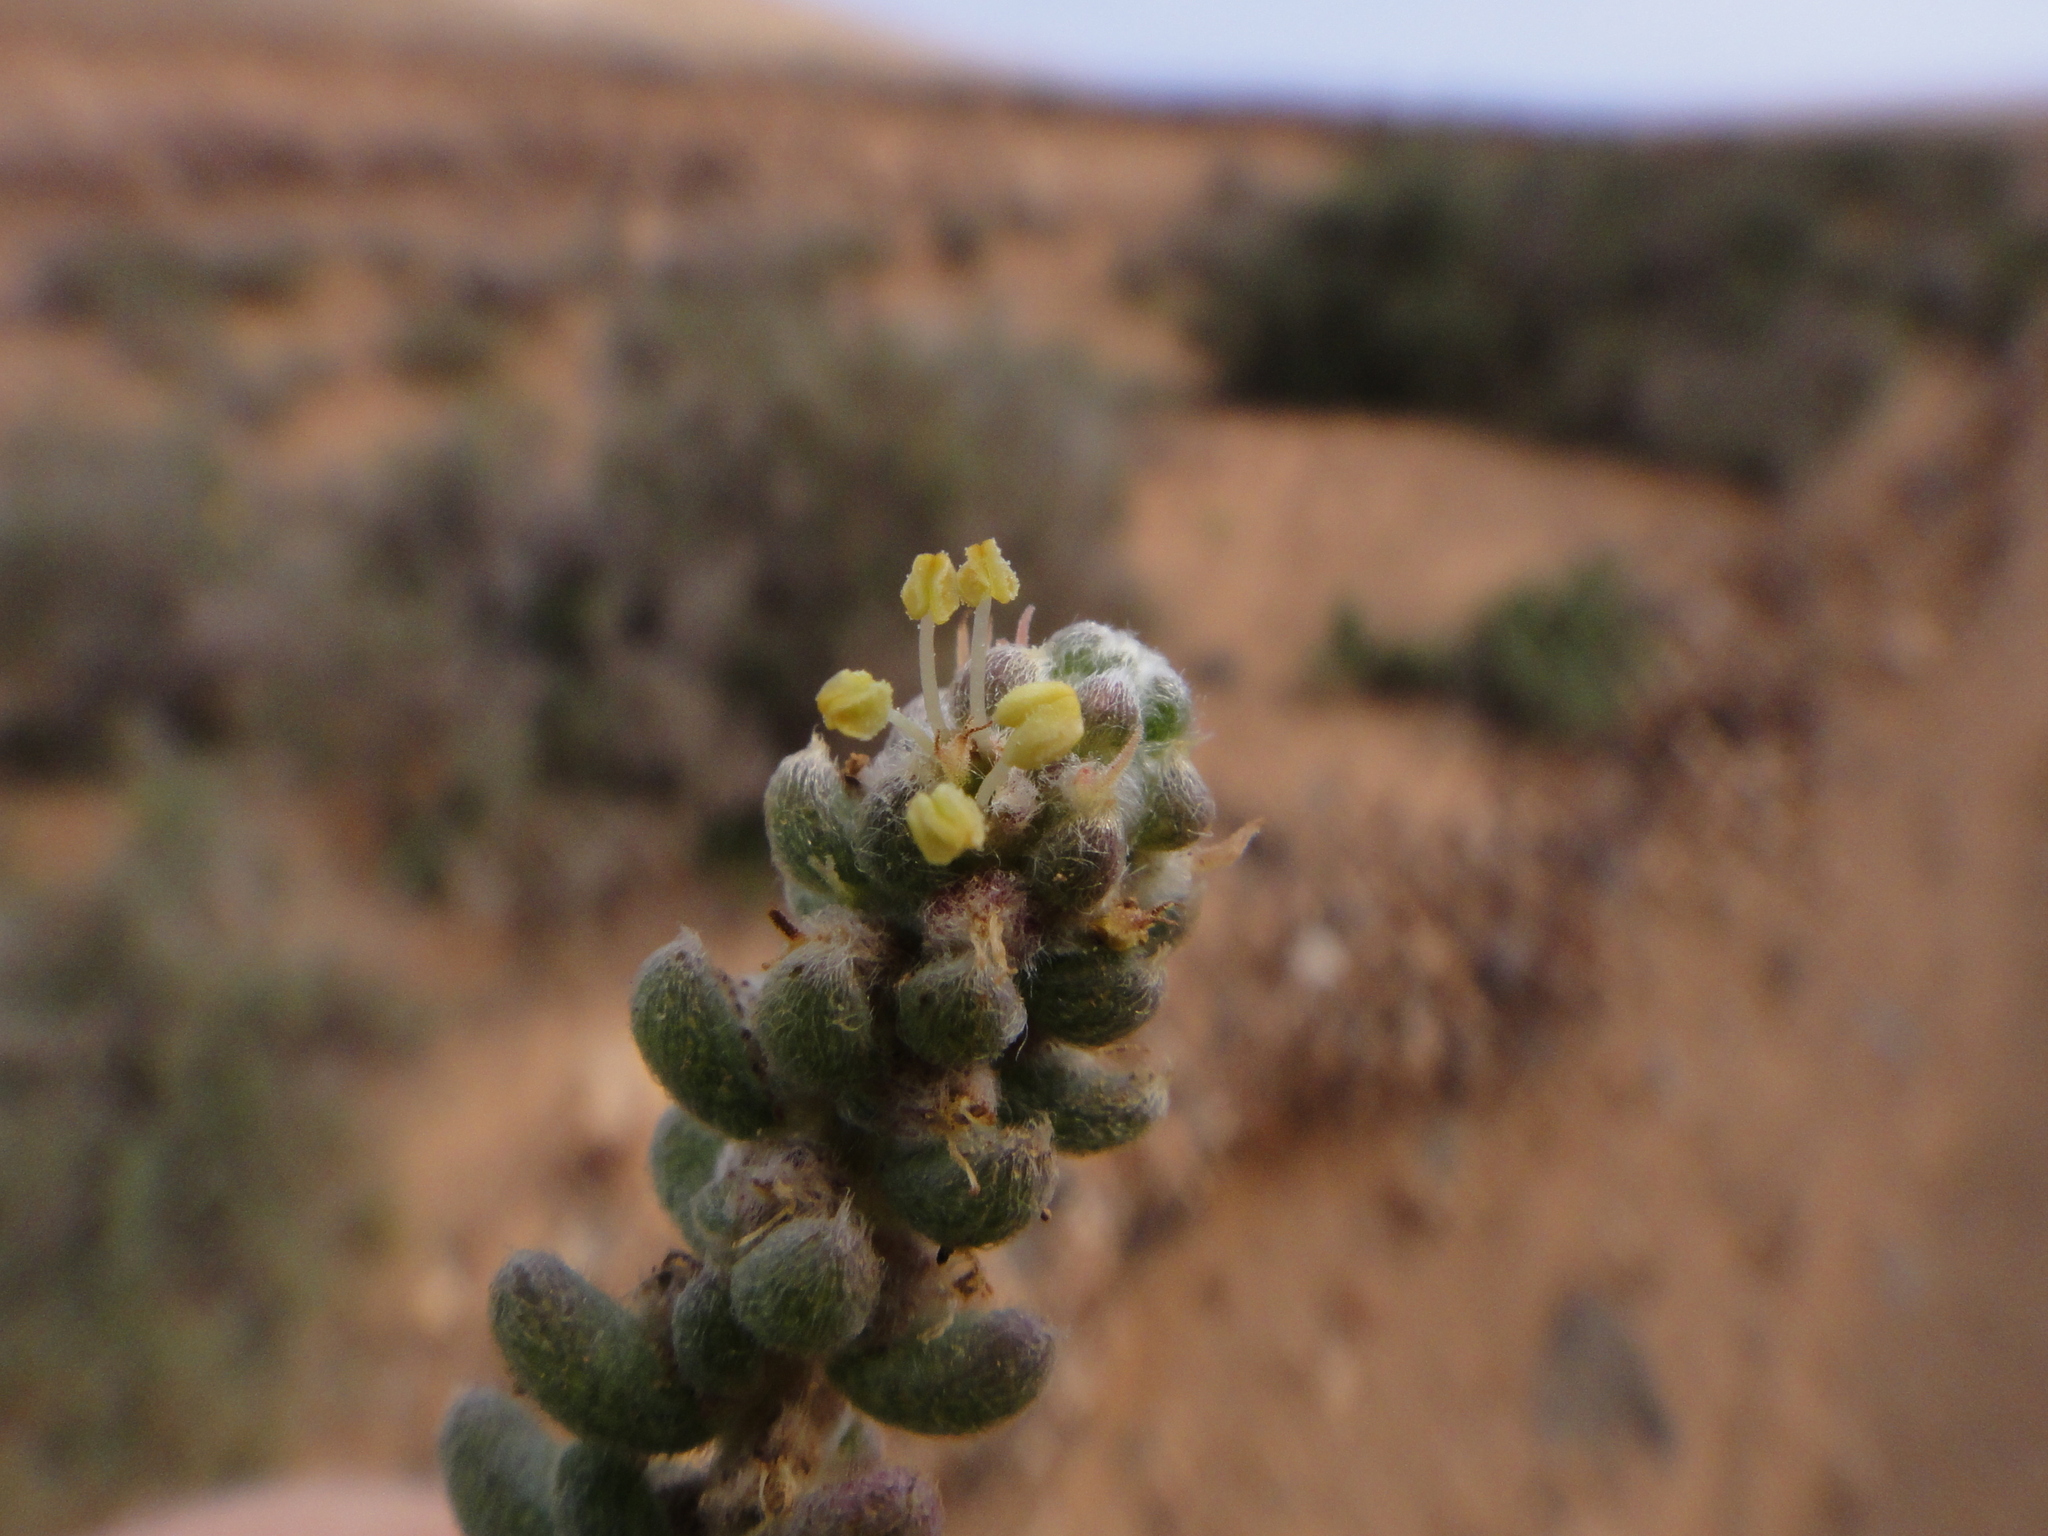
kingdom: Plantae
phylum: Tracheophyta
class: Magnoliopsida
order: Caryophyllales
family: Amaranthaceae
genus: Bassia
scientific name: Bassia tomentosa
